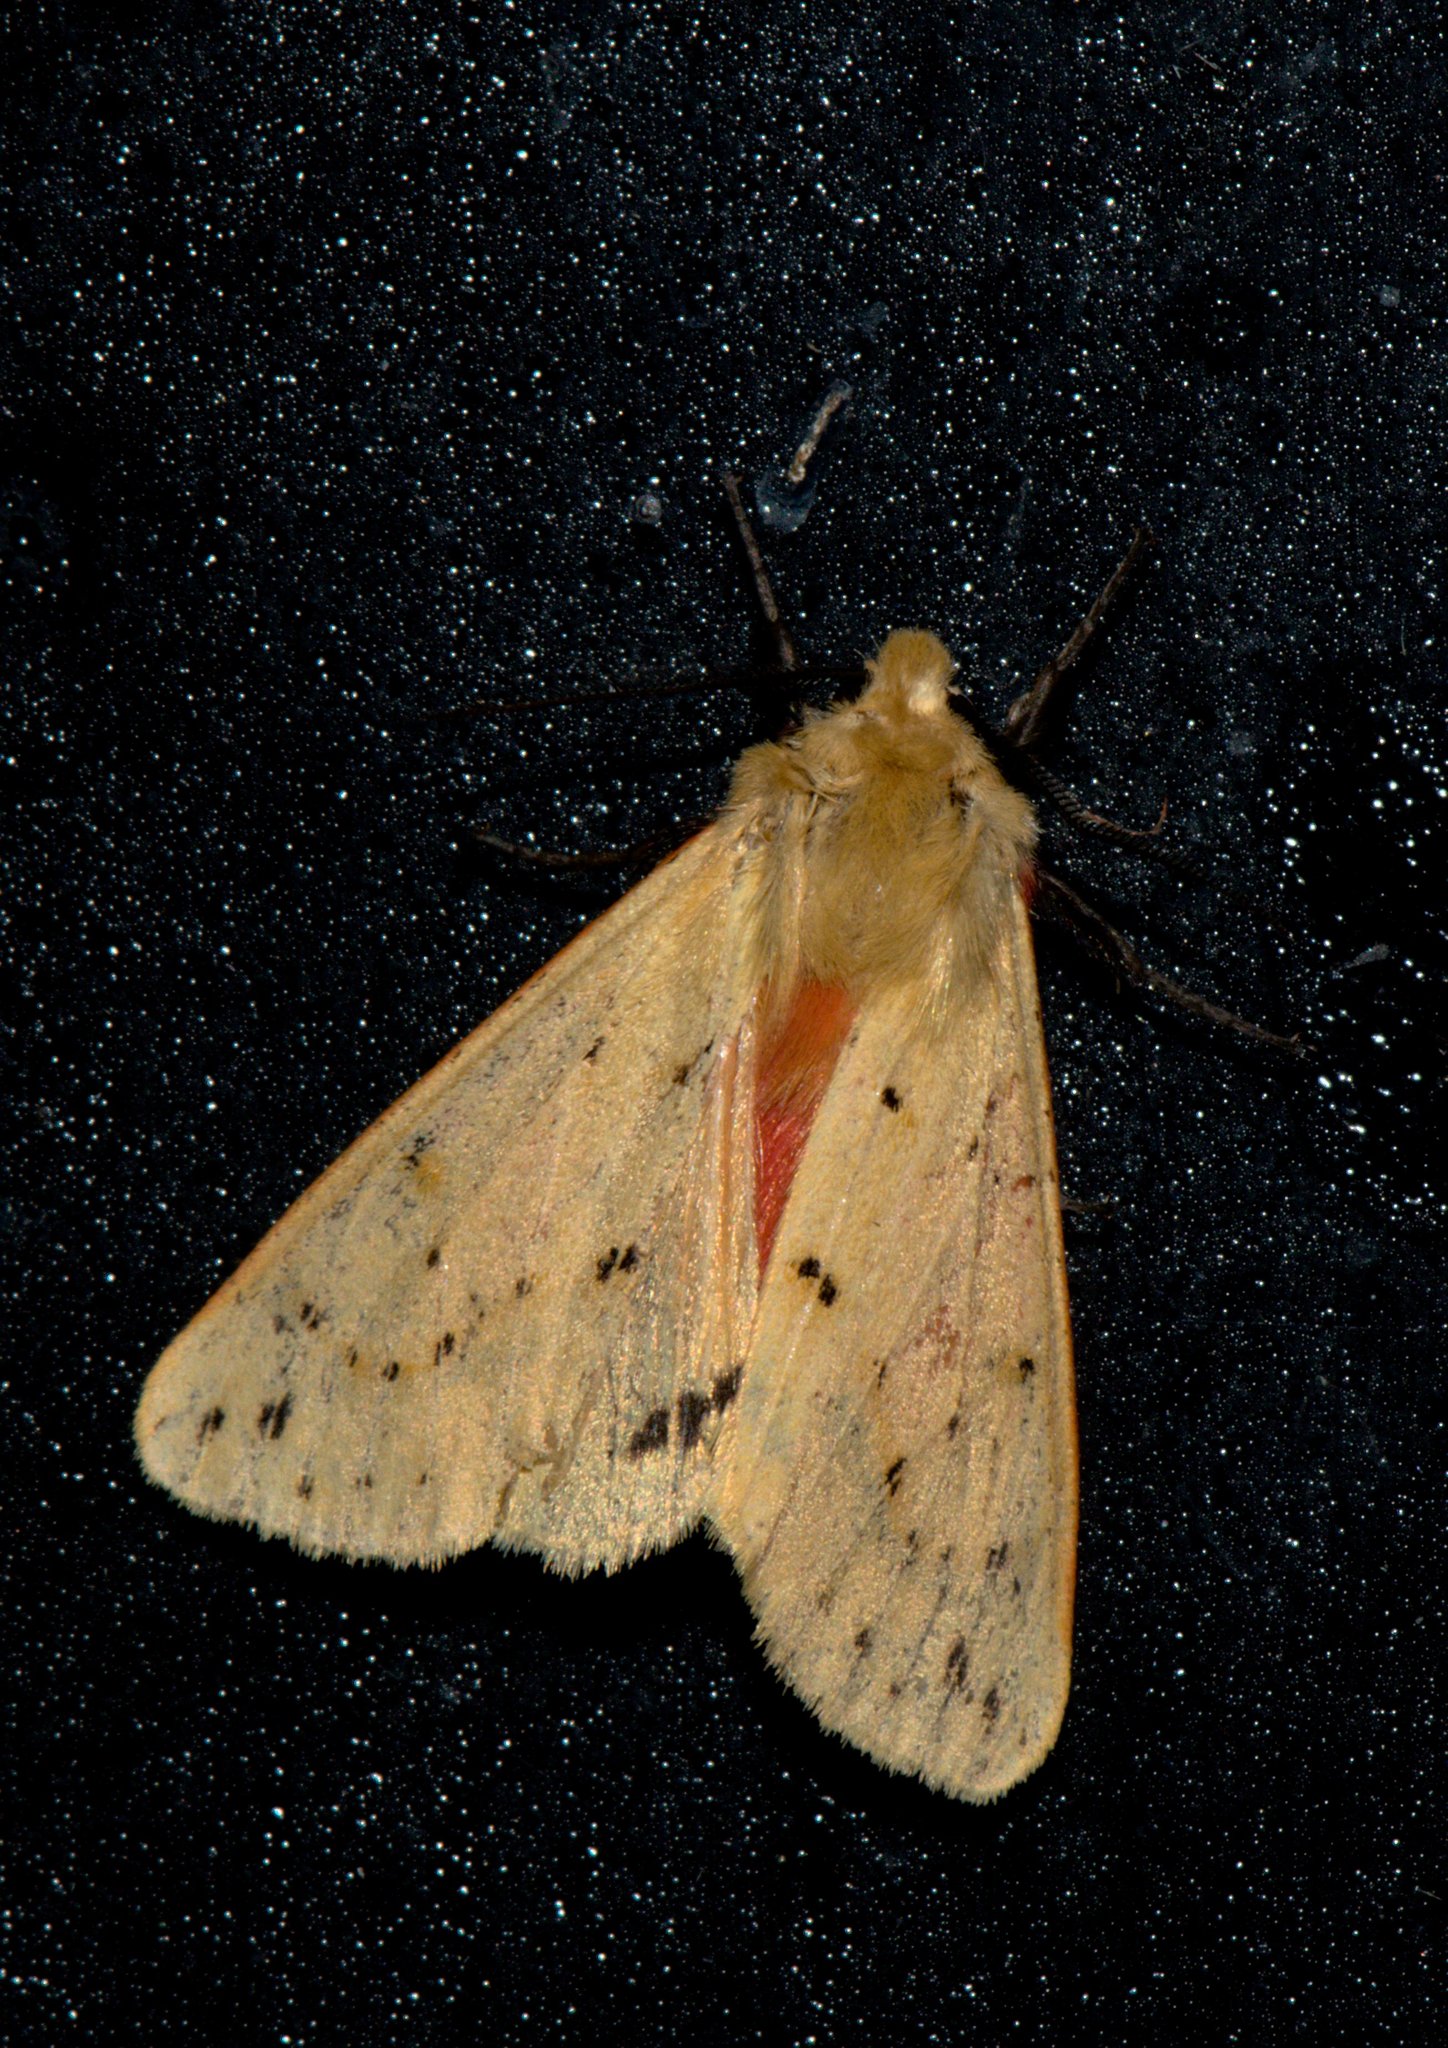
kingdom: Animalia
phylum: Arthropoda
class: Insecta
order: Lepidoptera
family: Erebidae
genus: Spilarctia
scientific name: Spilarctia obliqua
